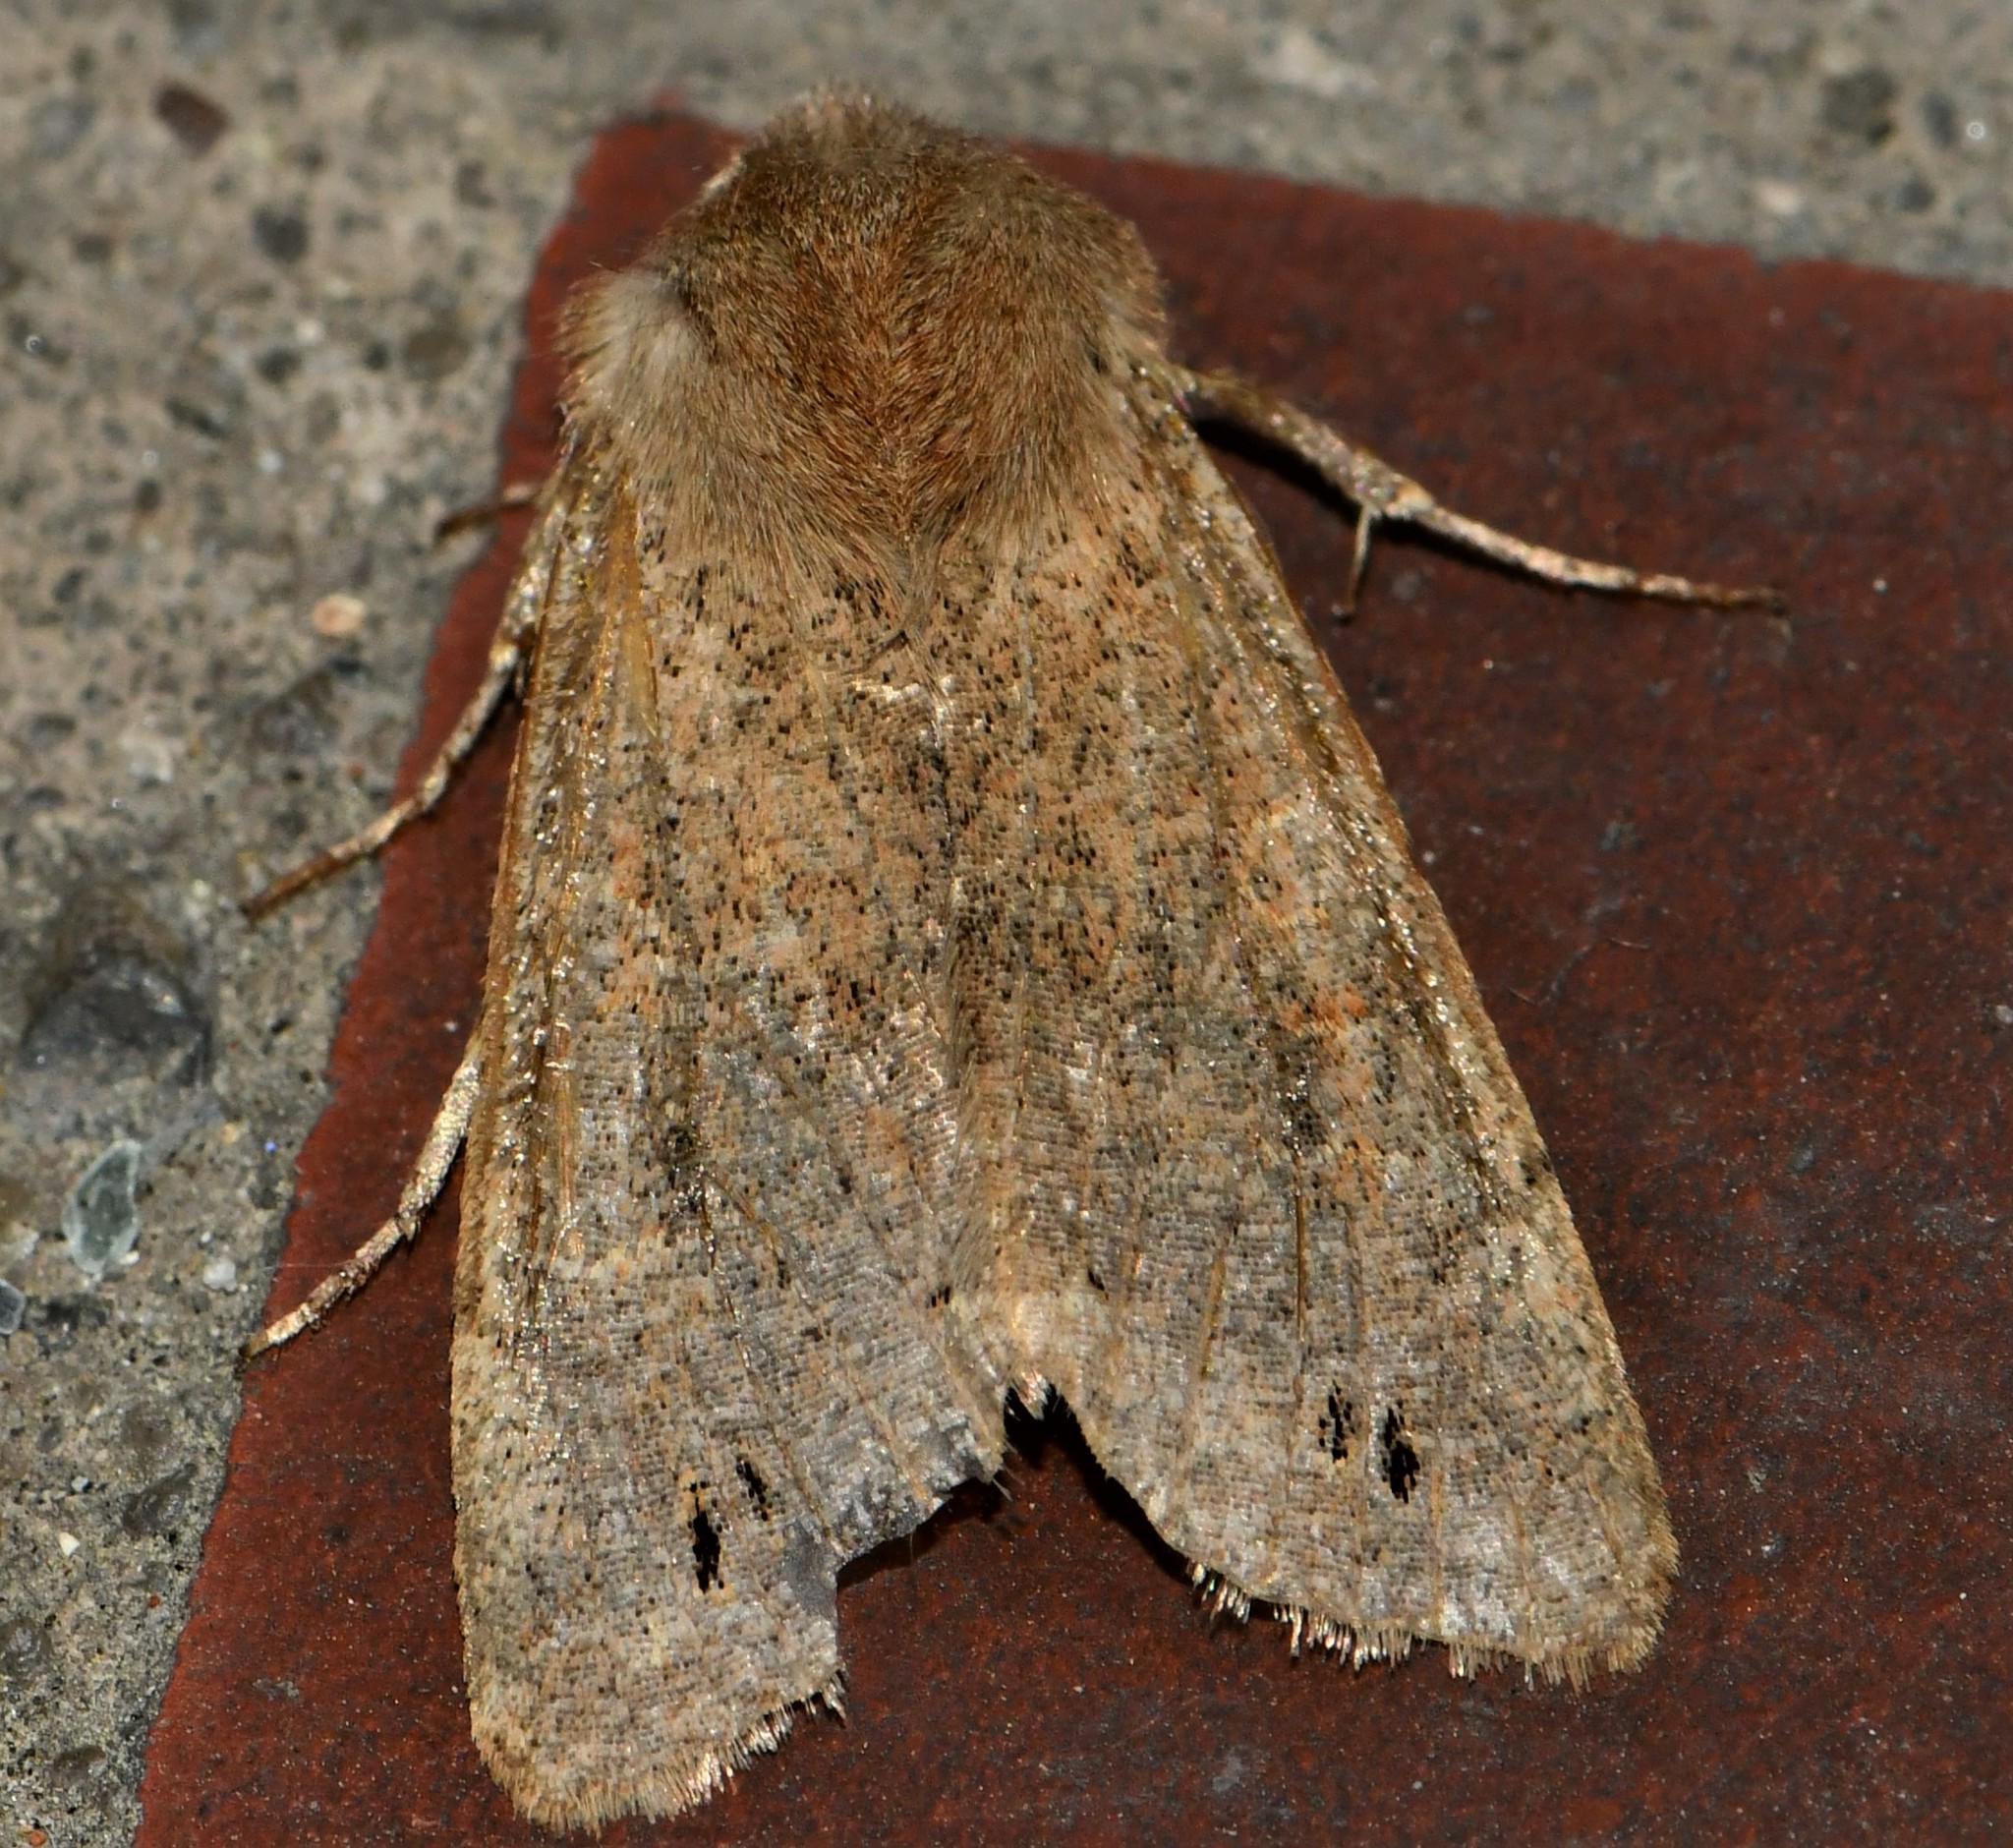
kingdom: Animalia
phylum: Arthropoda
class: Insecta
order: Lepidoptera
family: Noctuidae
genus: Anorthoa
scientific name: Anorthoa munda
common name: Twin-spotted quaker
